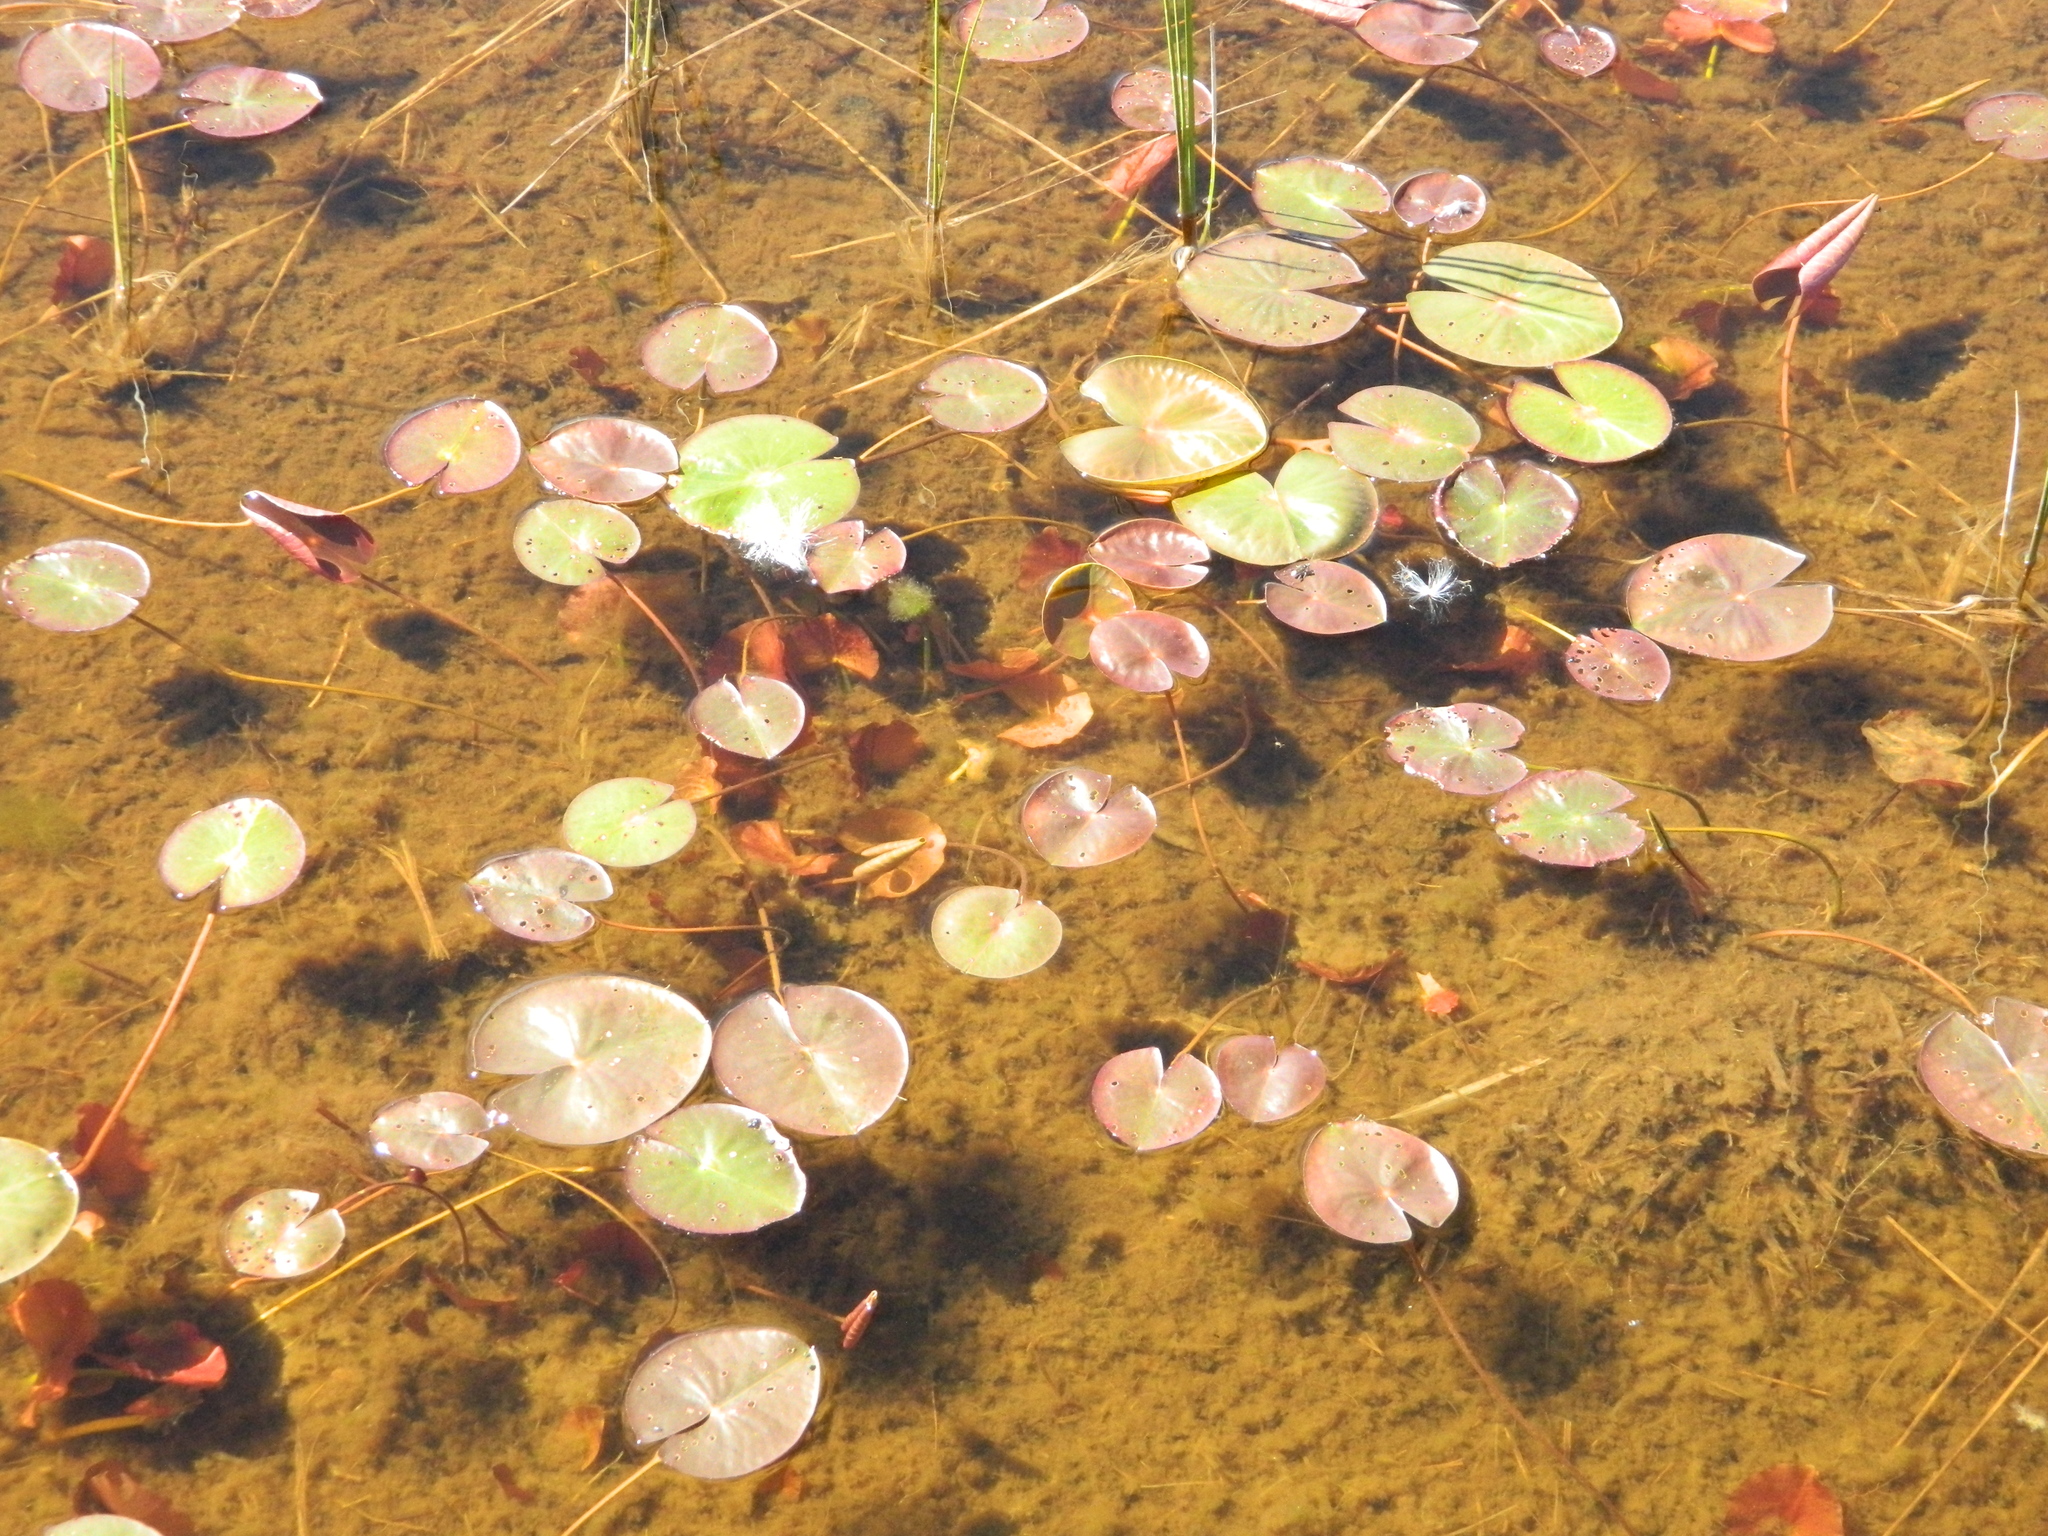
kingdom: Plantae
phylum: Tracheophyta
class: Magnoliopsida
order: Nymphaeales
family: Nymphaeaceae
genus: Nymphaea
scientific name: Nymphaea odorata
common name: Fragrant water-lily
